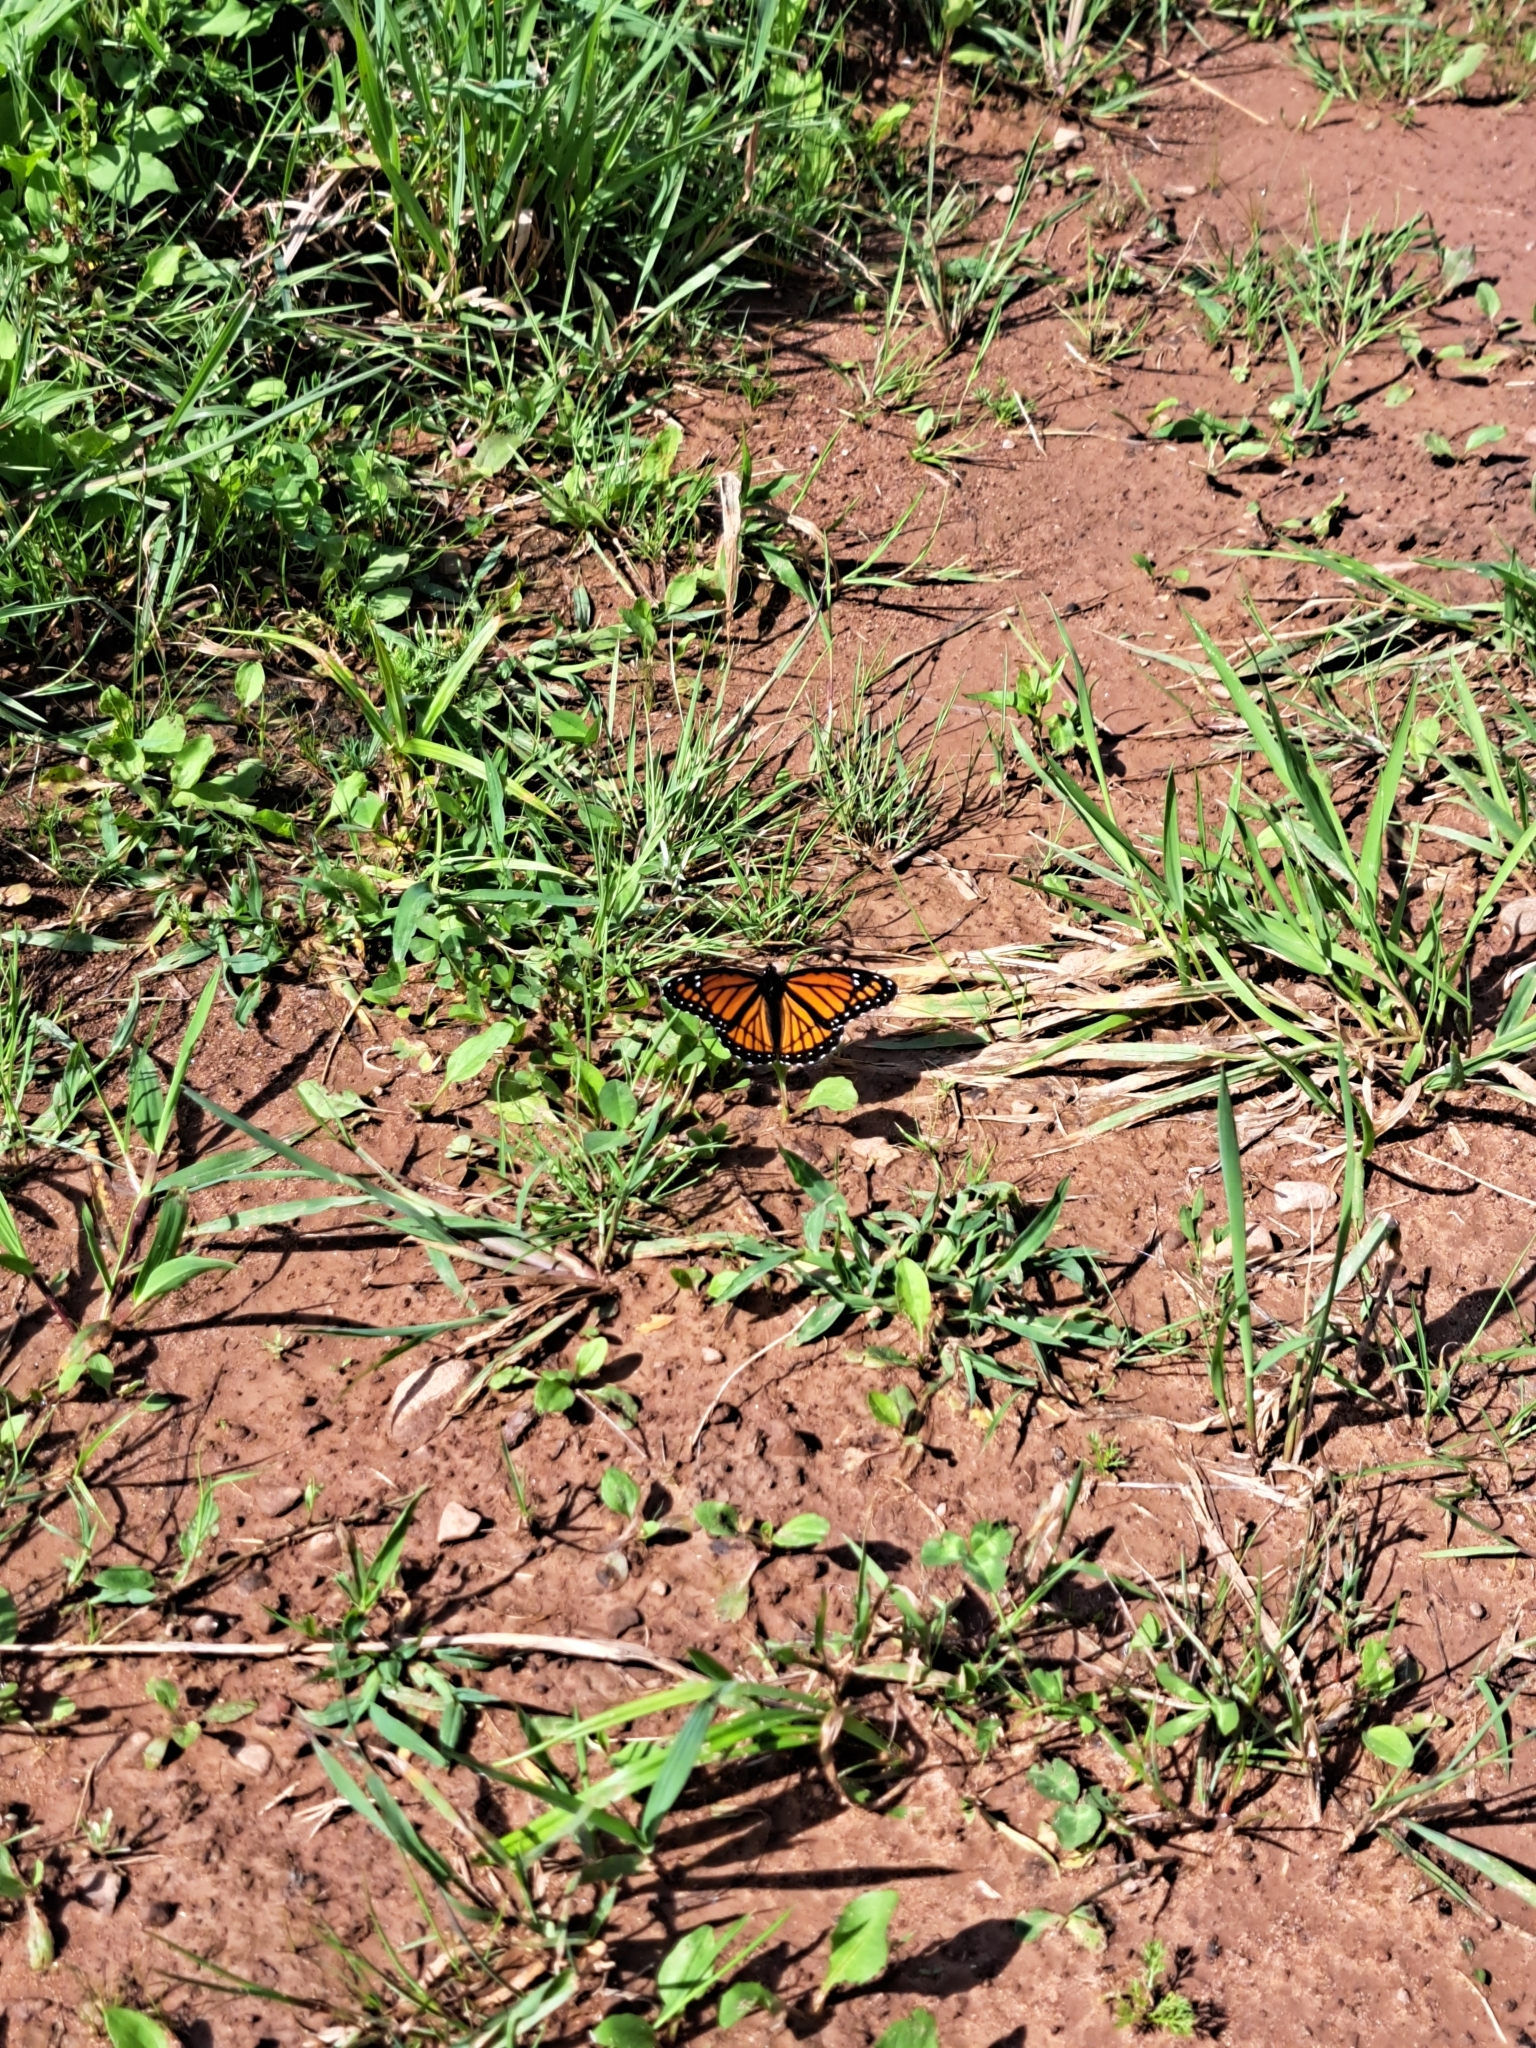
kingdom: Animalia
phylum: Arthropoda
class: Insecta
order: Lepidoptera
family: Nymphalidae
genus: Limenitis
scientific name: Limenitis archippus
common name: Viceroy
